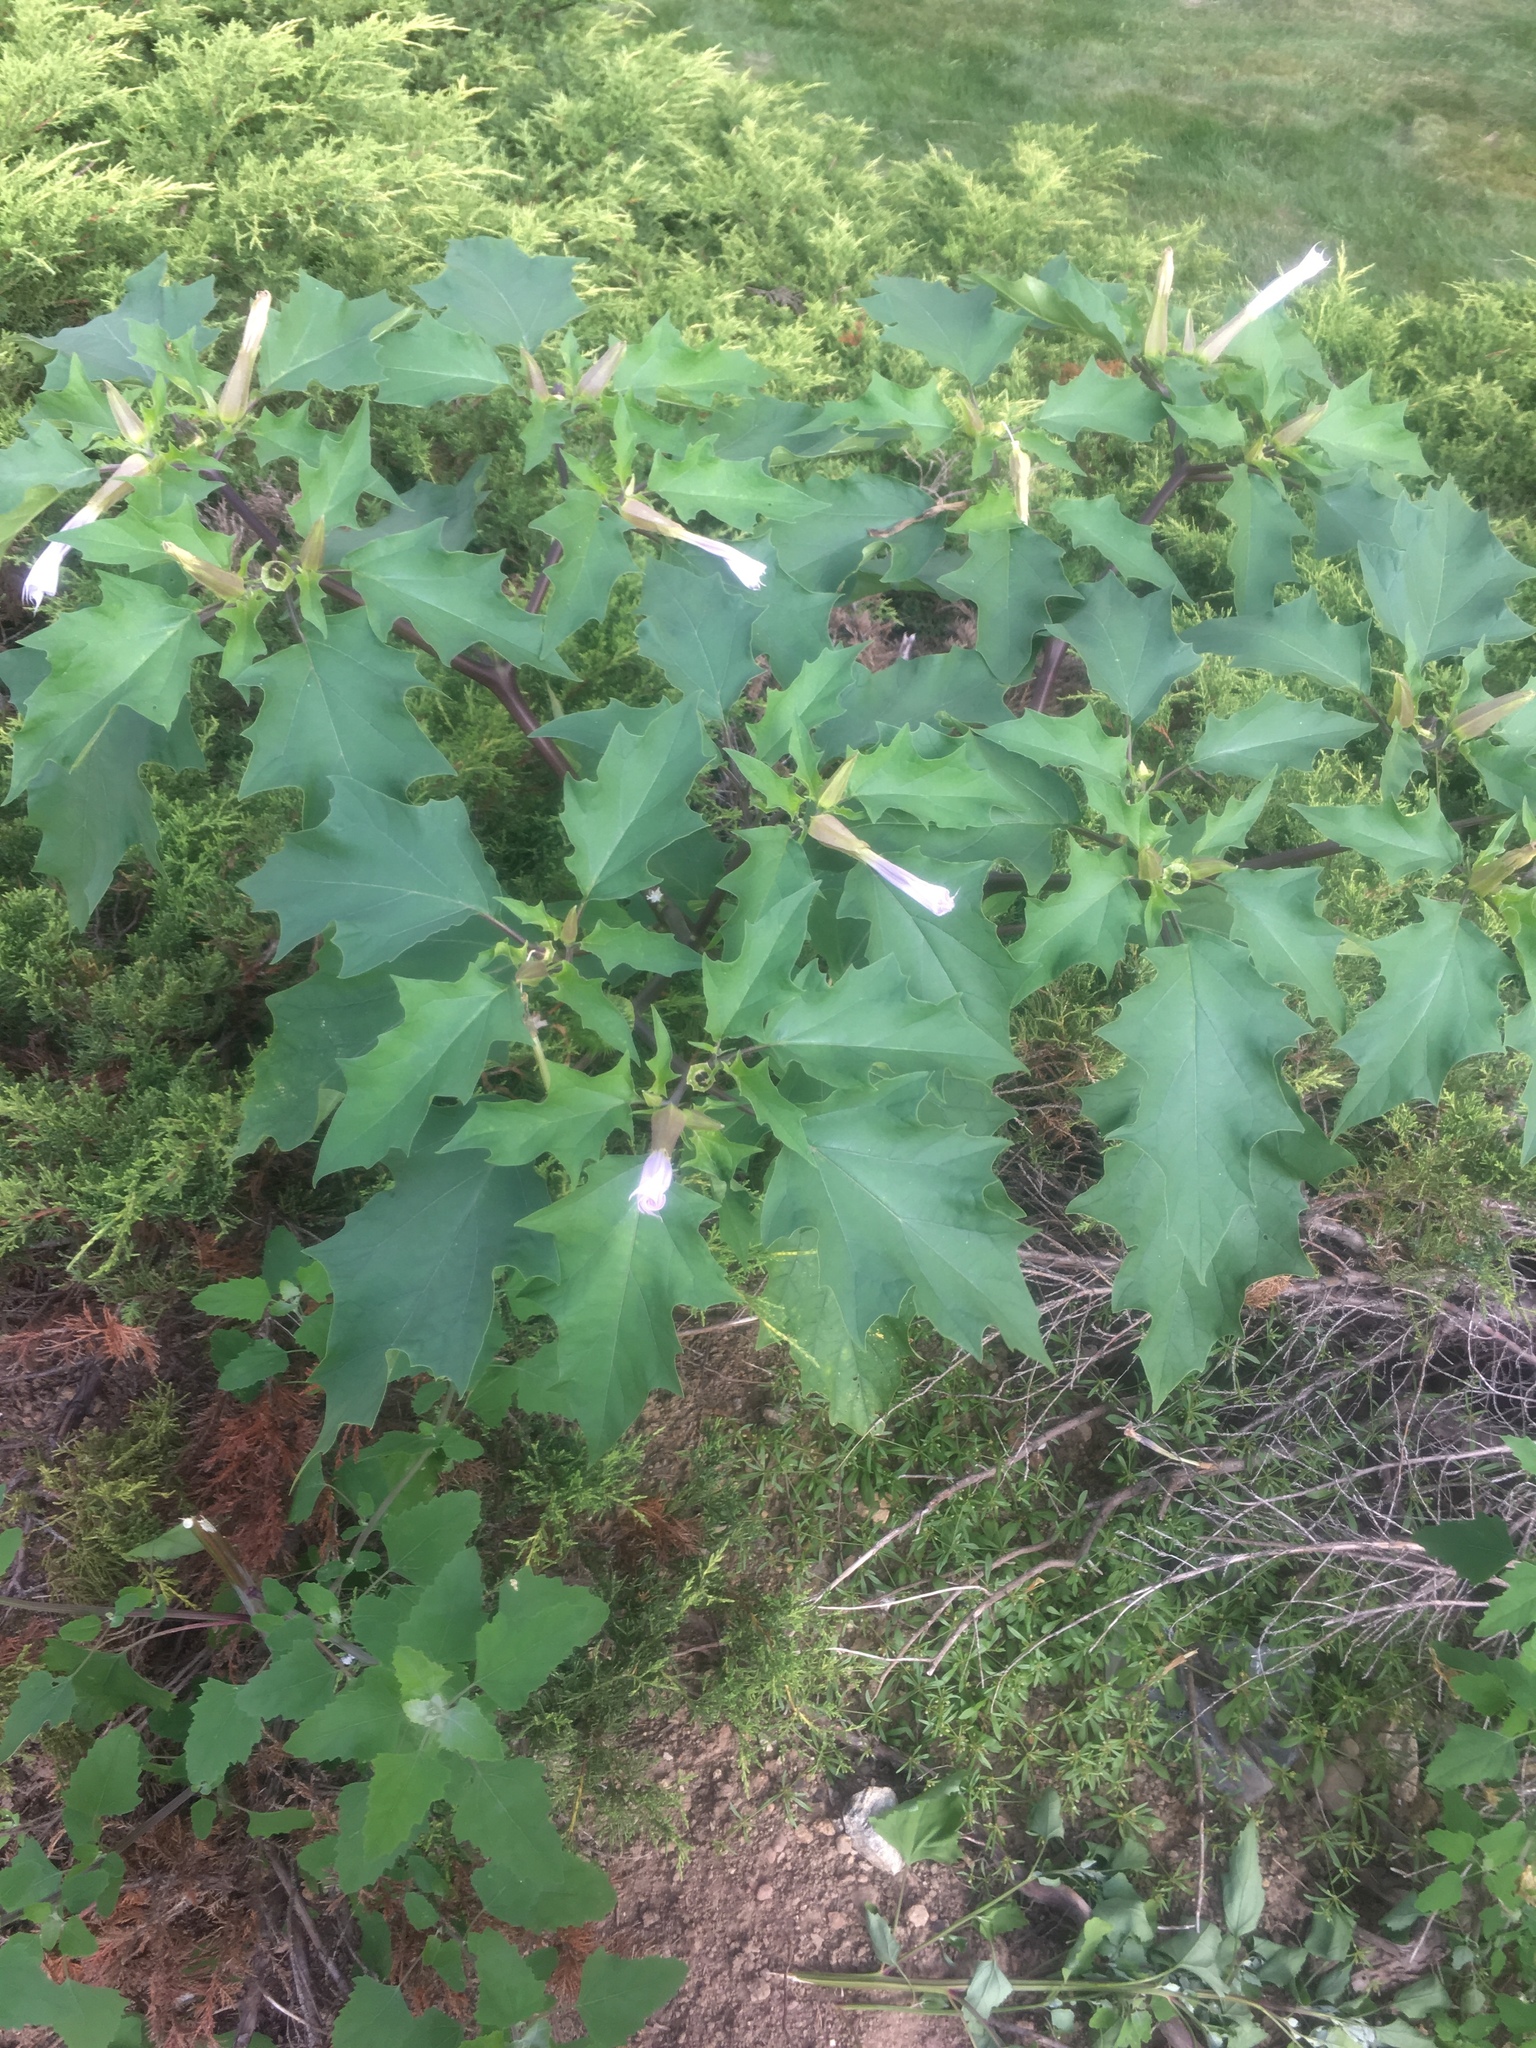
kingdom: Plantae
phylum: Tracheophyta
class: Magnoliopsida
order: Solanales
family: Solanaceae
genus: Datura
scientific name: Datura stramonium
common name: Thorn-apple
